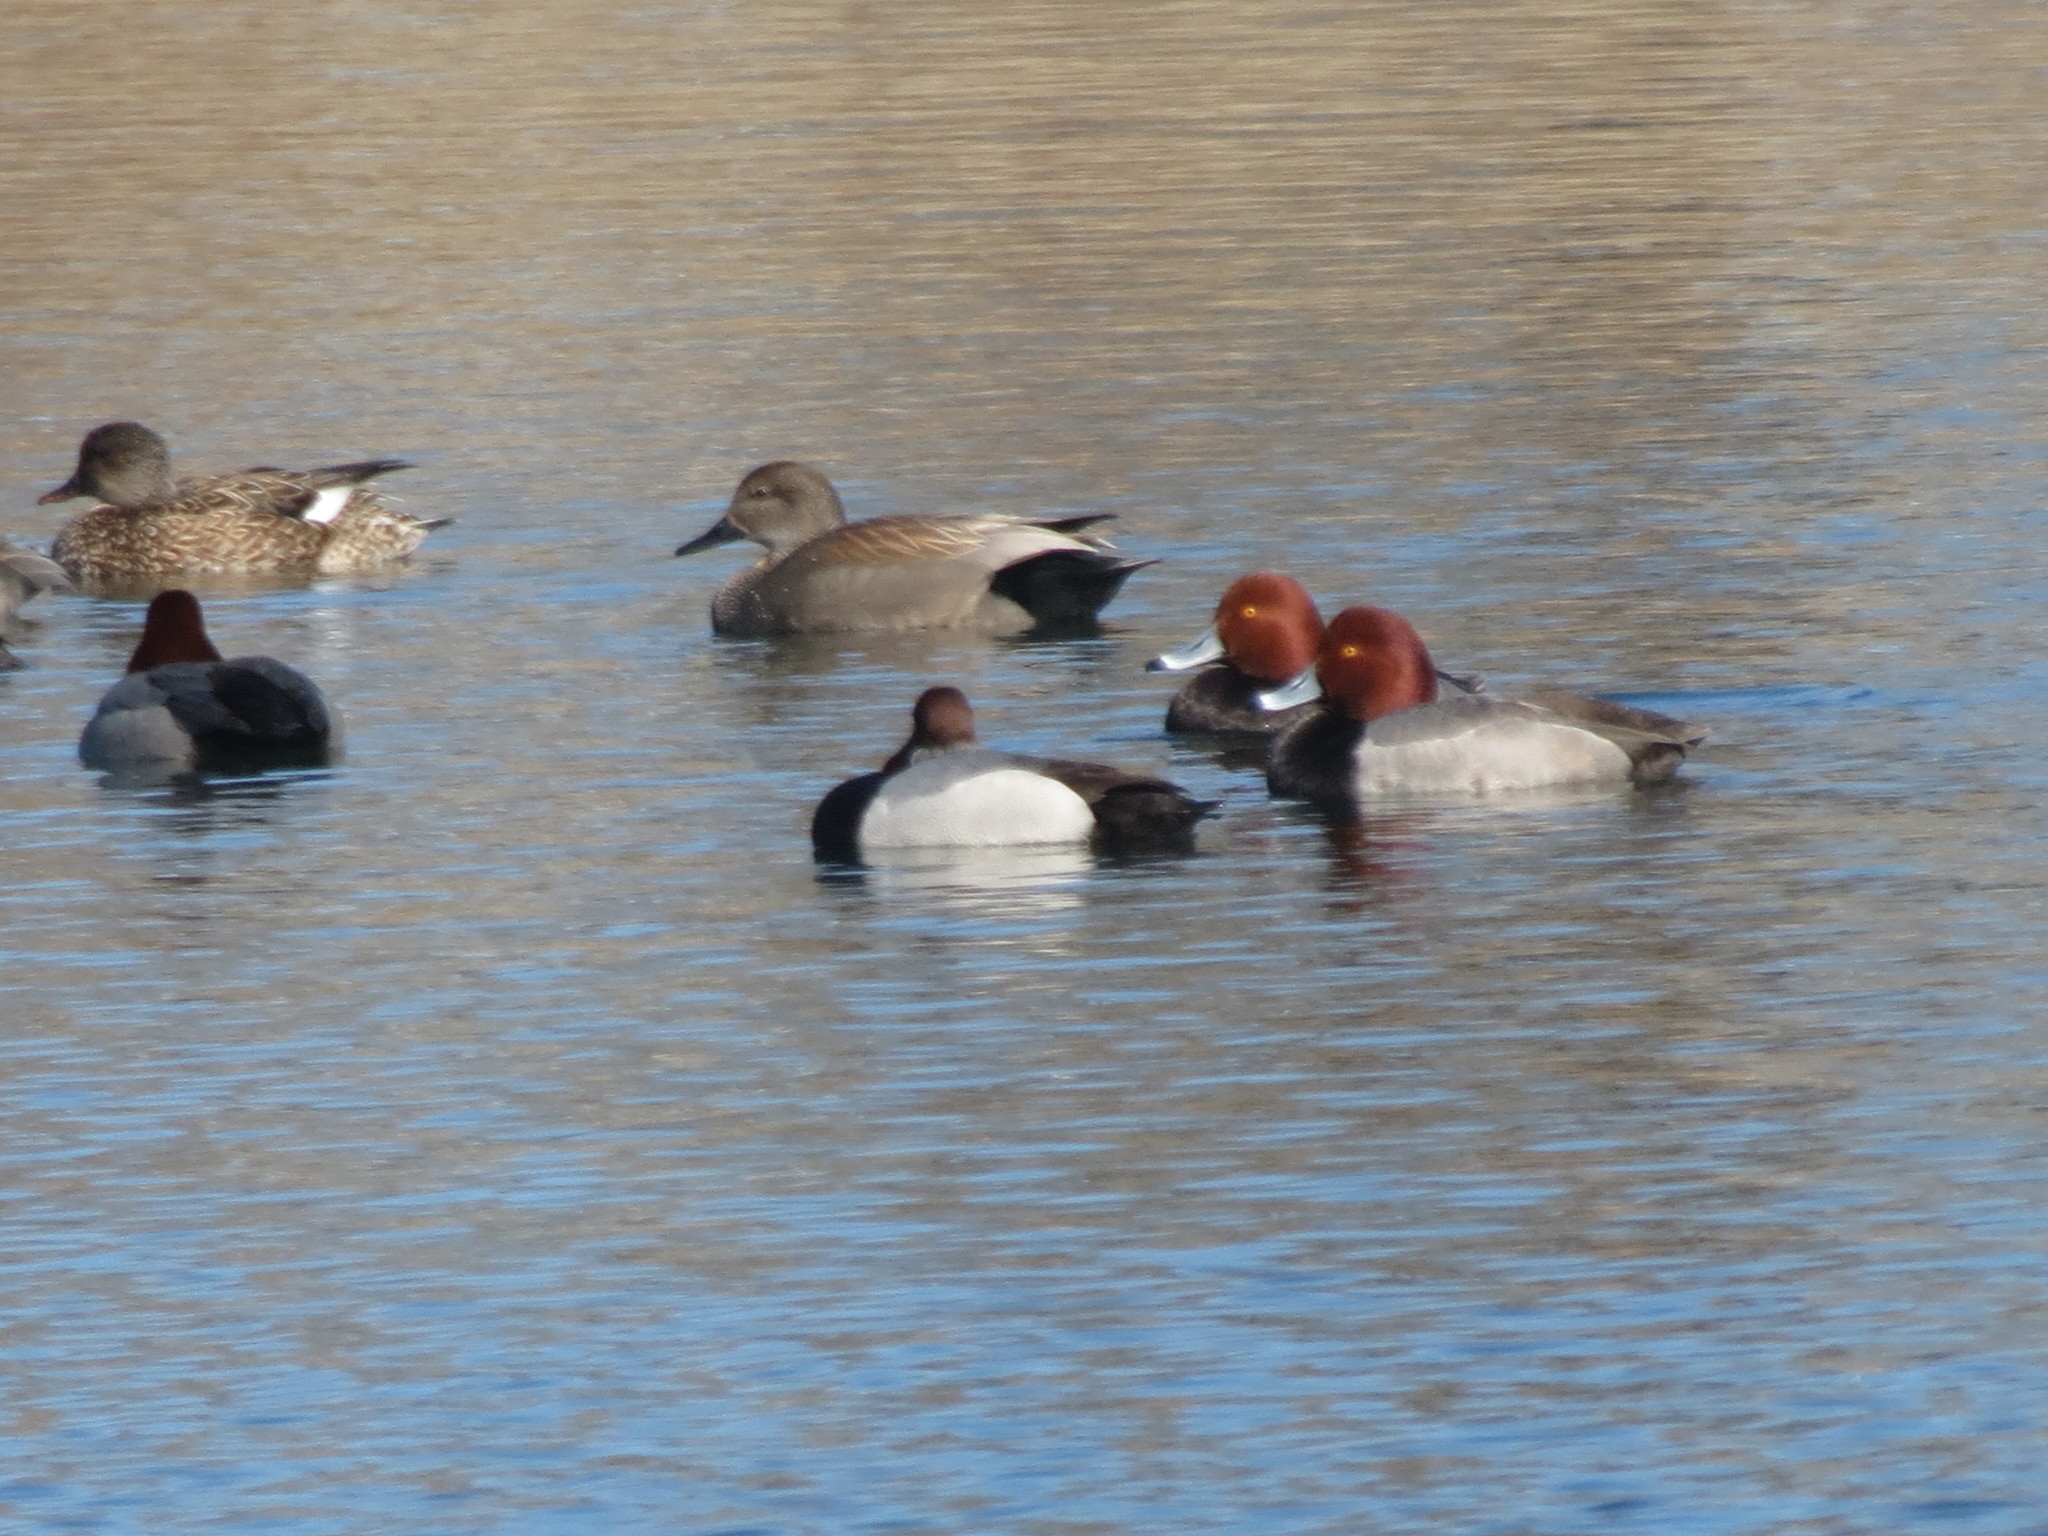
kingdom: Animalia
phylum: Chordata
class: Aves
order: Anseriformes
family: Anatidae
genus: Mareca
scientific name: Mareca strepera
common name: Gadwall
